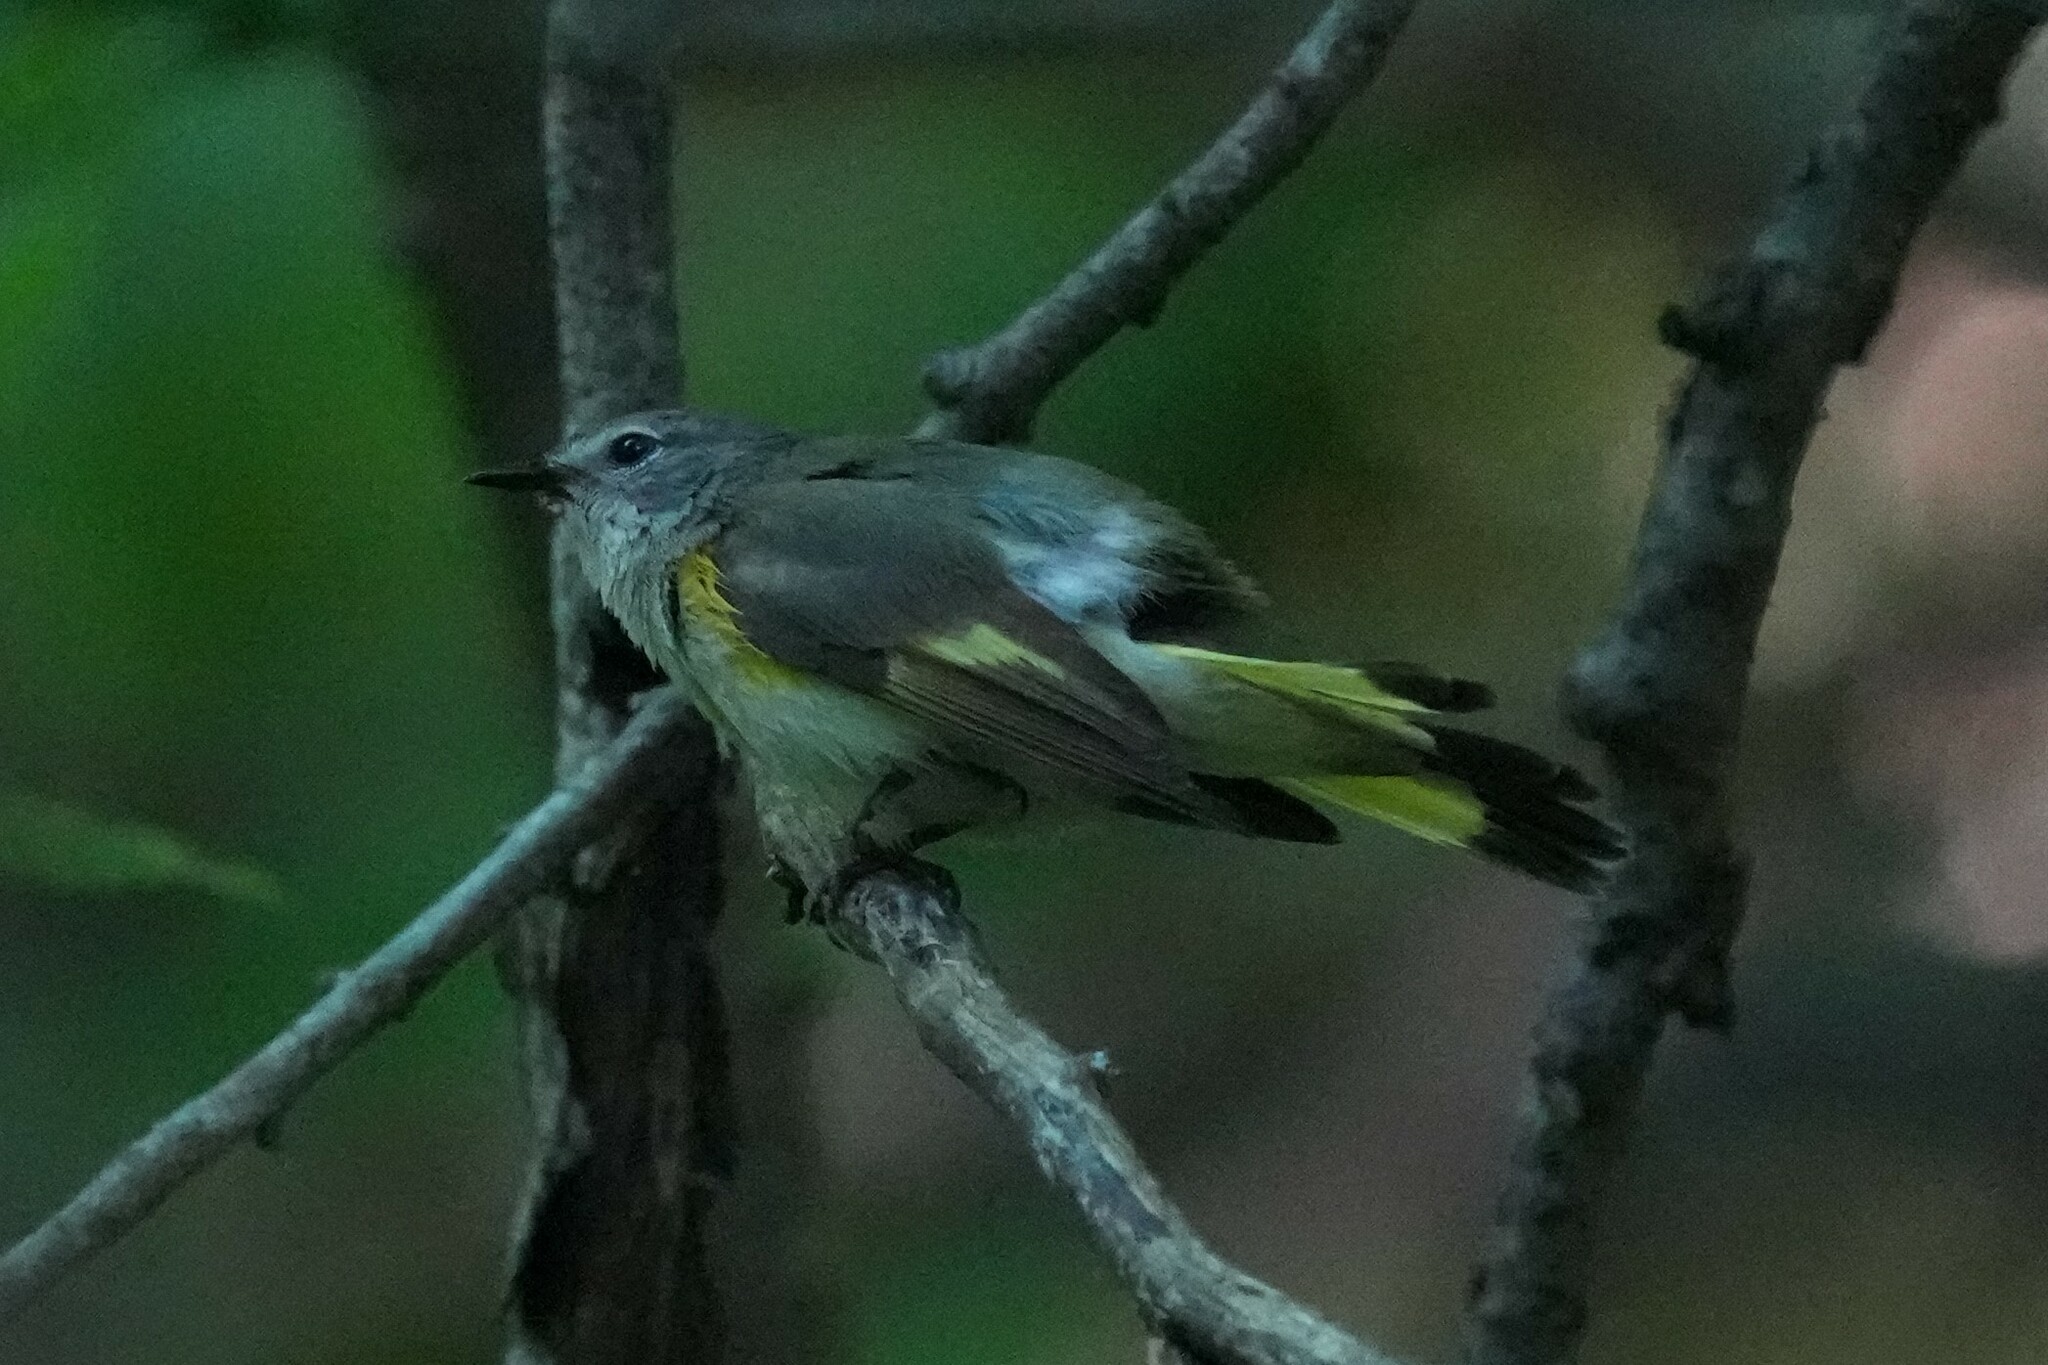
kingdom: Animalia
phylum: Chordata
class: Aves
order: Passeriformes
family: Parulidae
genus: Setophaga
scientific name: Setophaga ruticilla
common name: American redstart
